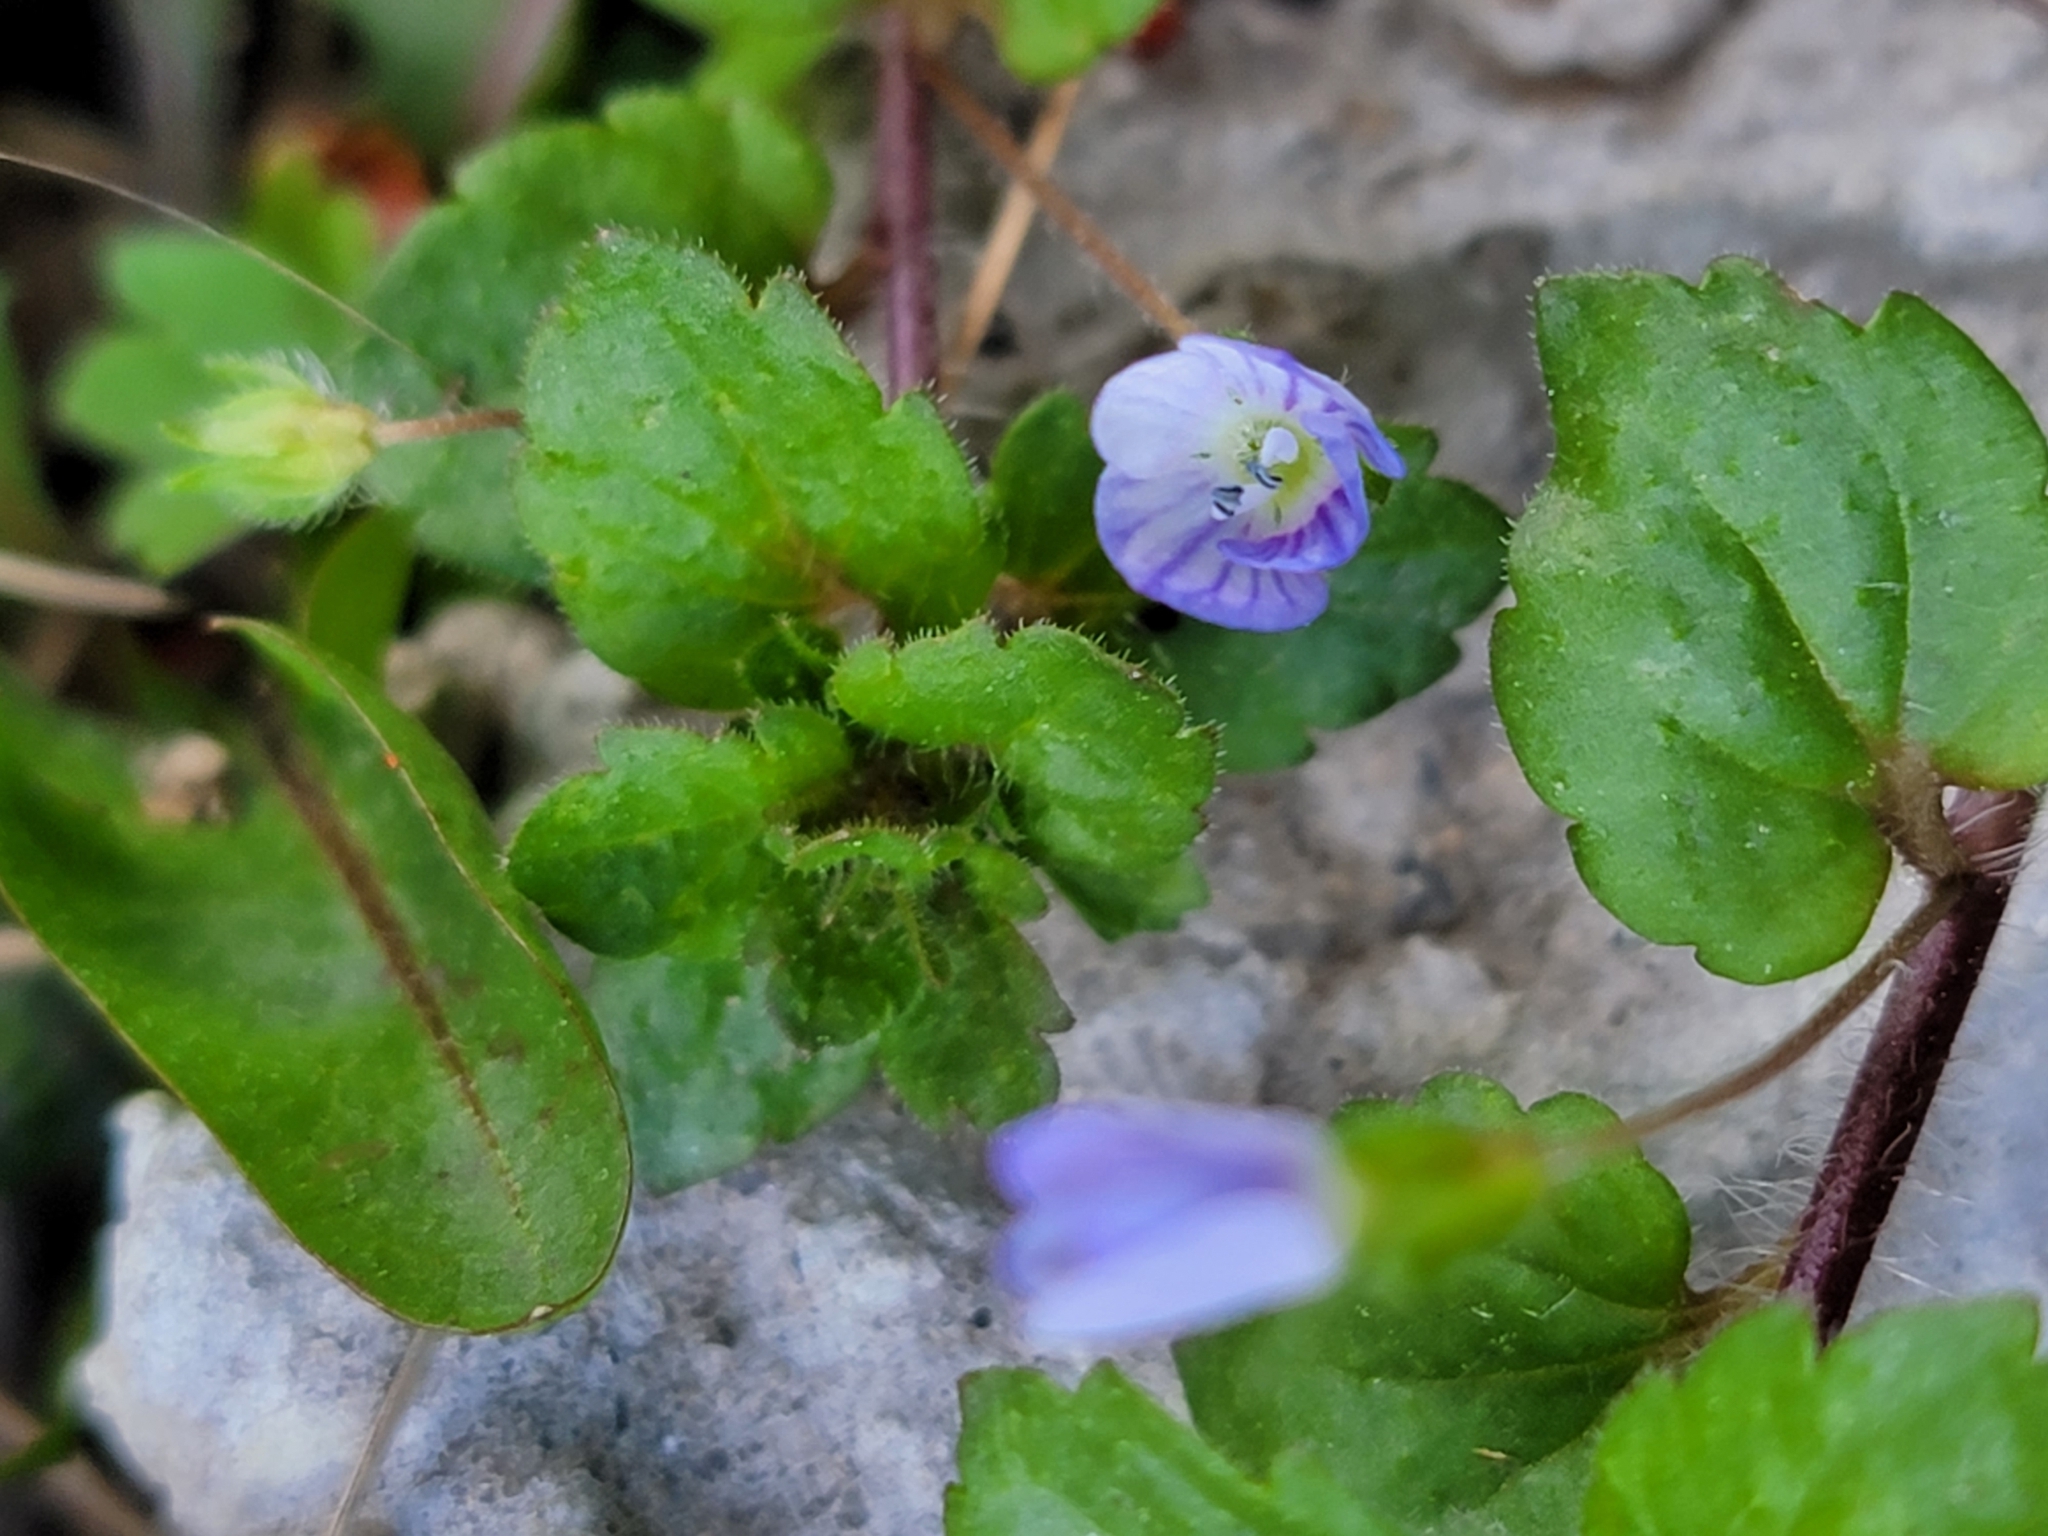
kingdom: Plantae
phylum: Tracheophyta
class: Magnoliopsida
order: Lamiales
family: Plantaginaceae
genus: Veronica
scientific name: Veronica persica
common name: Common field-speedwell
